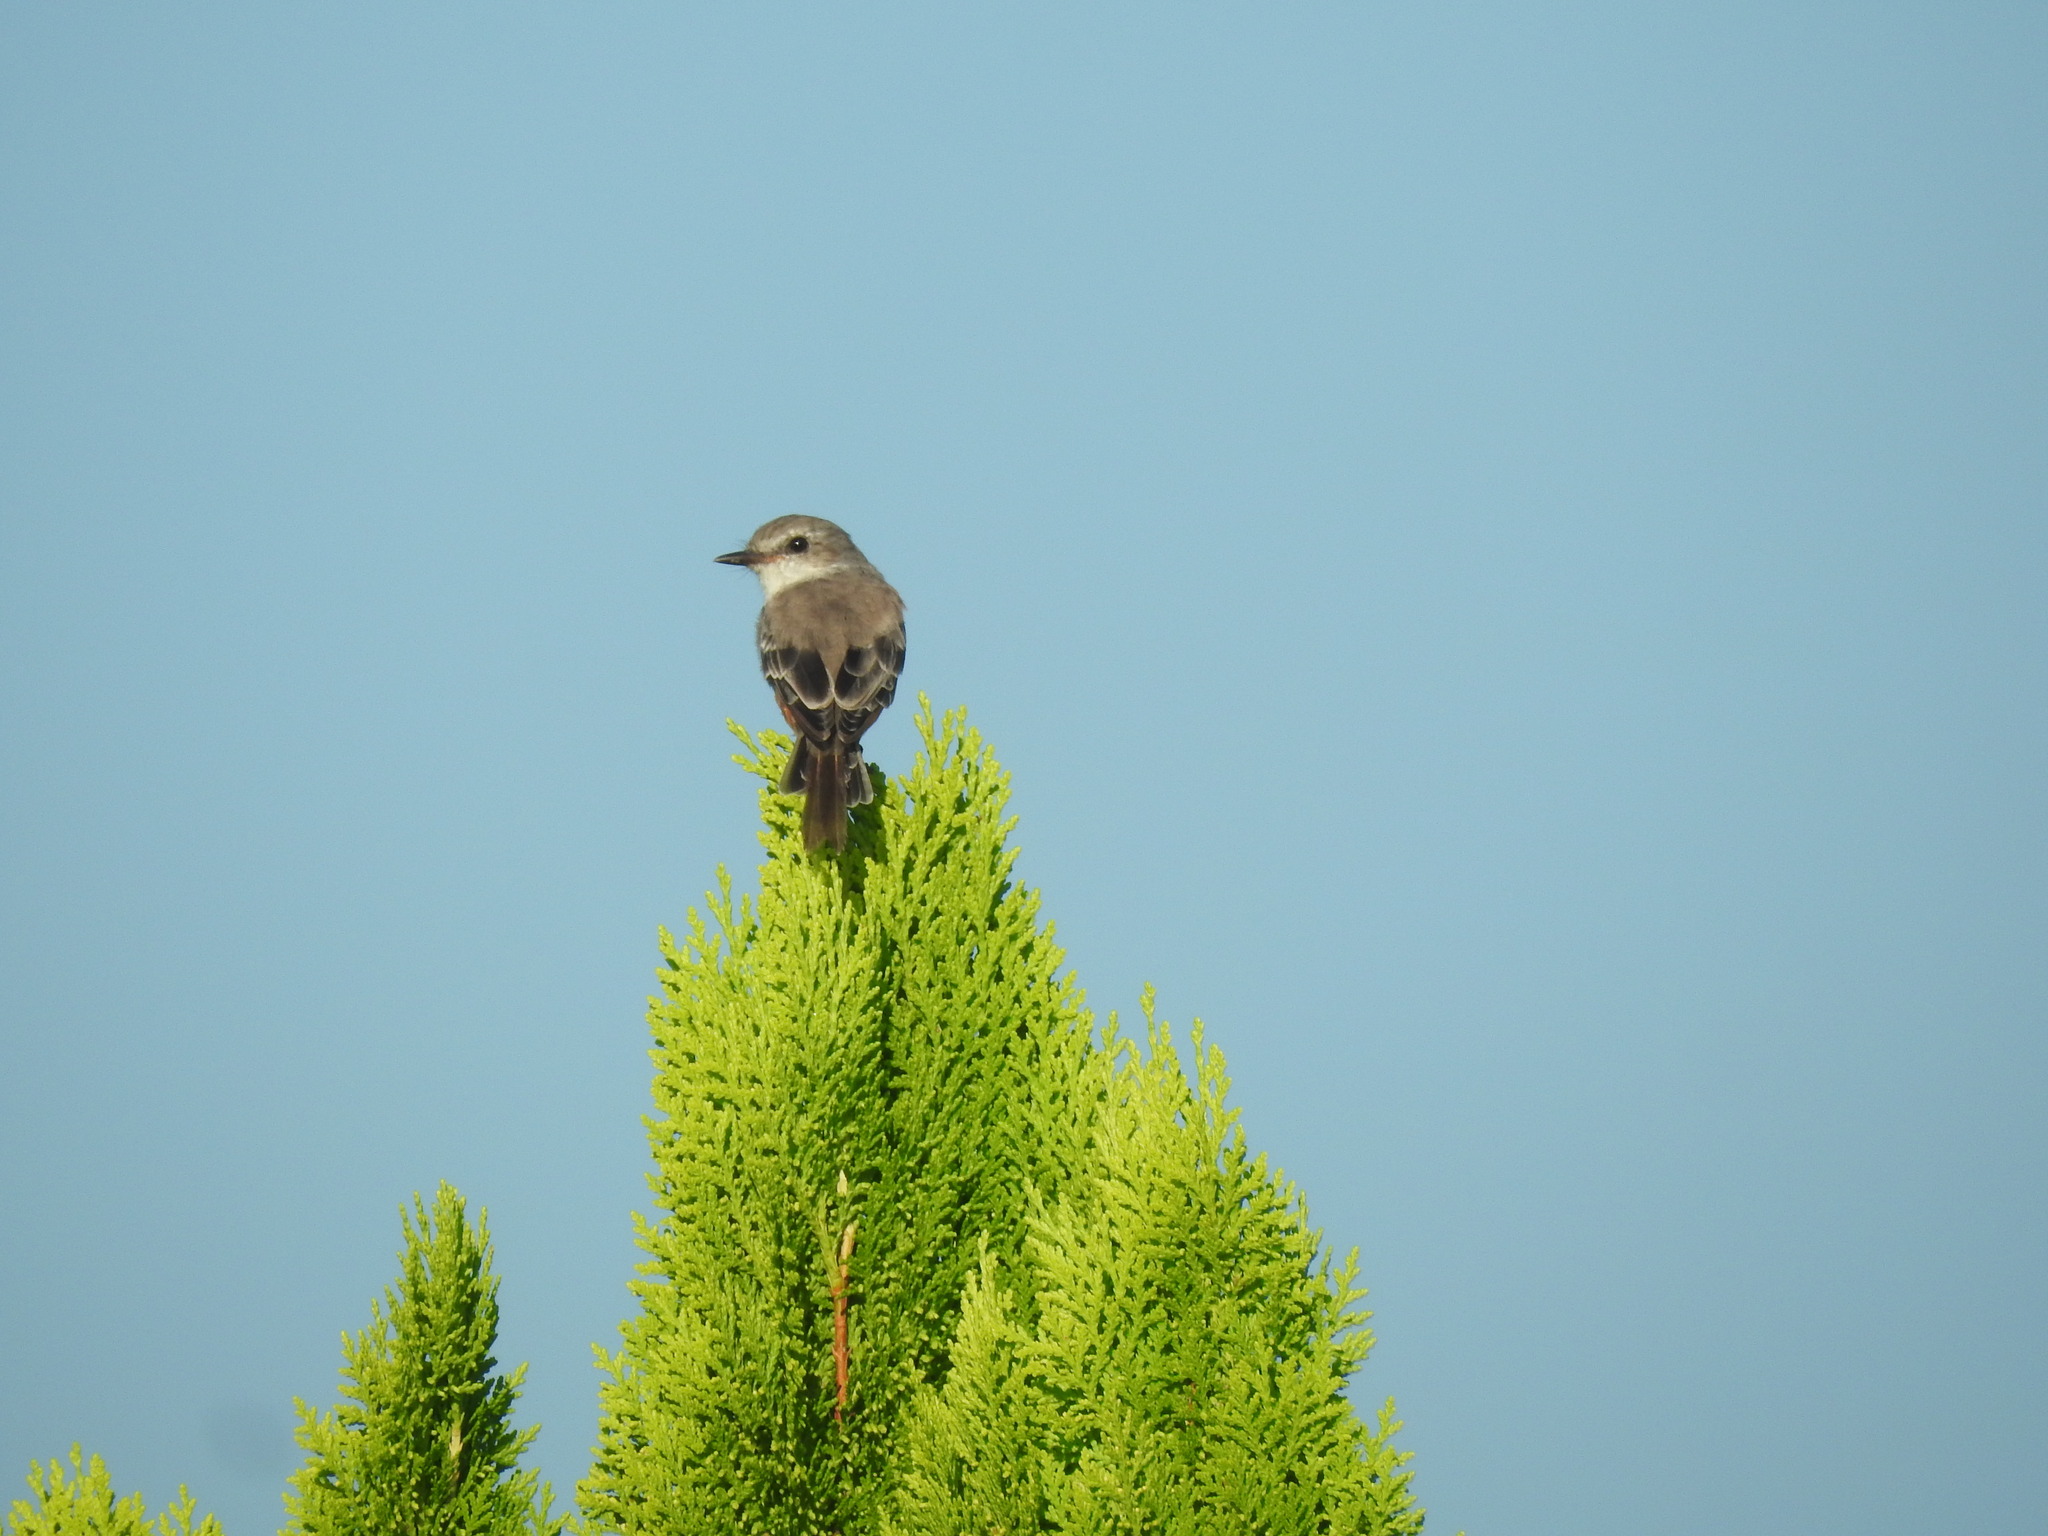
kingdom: Animalia
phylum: Chordata
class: Aves
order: Passeriformes
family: Tyrannidae
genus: Pyrocephalus
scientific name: Pyrocephalus rubinus
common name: Vermilion flycatcher
